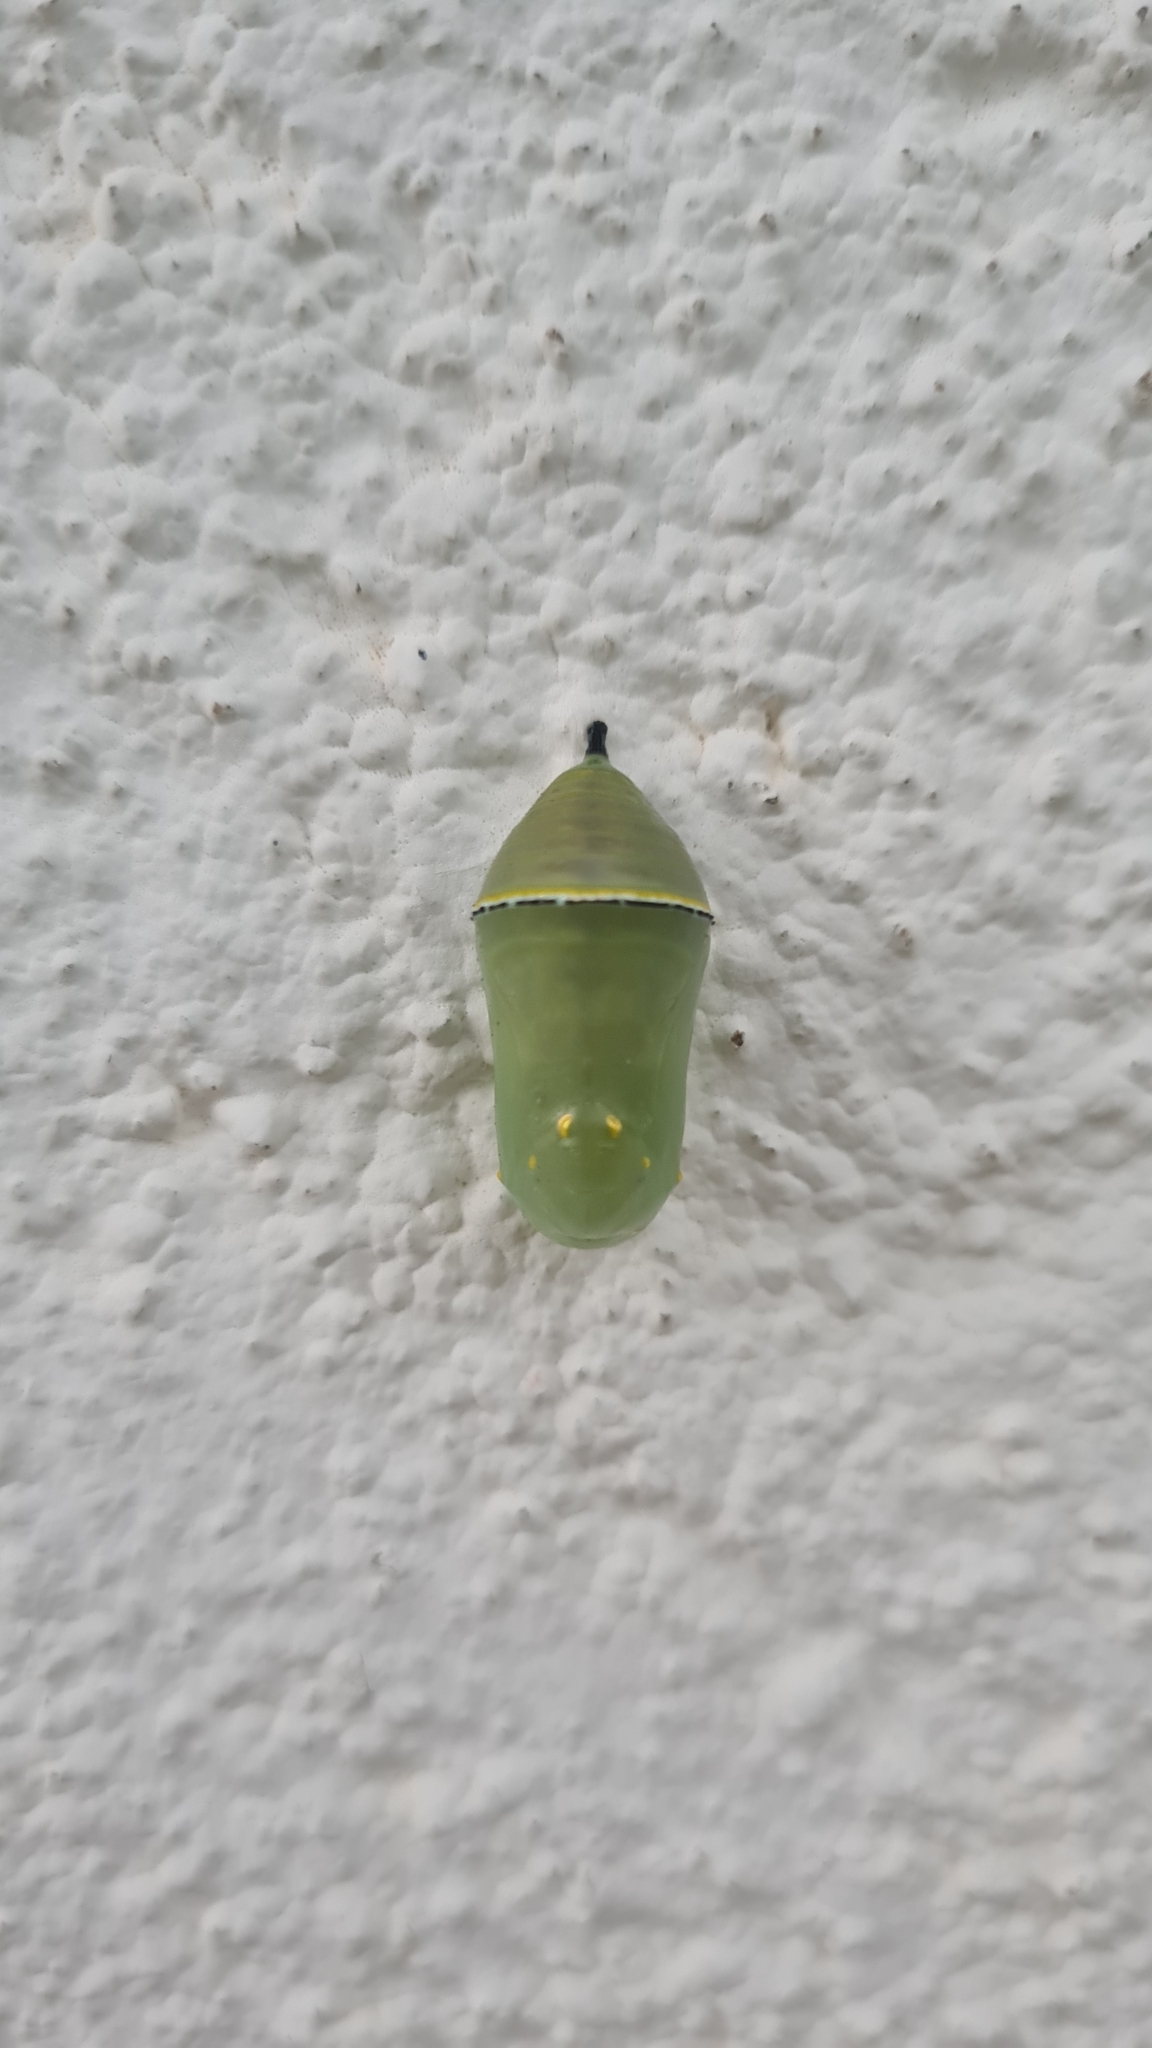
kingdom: Animalia
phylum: Arthropoda
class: Insecta
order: Lepidoptera
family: Nymphalidae
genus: Danaus
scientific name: Danaus erippus
